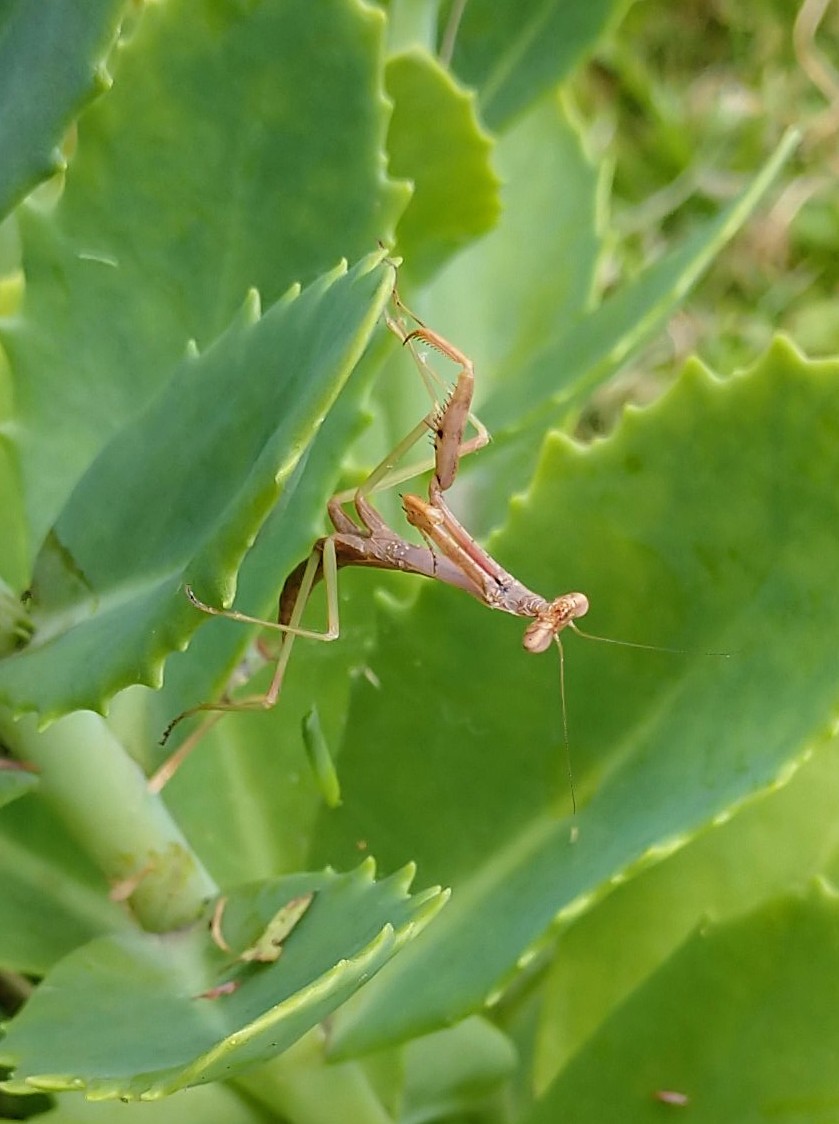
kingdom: Animalia
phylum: Arthropoda
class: Insecta
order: Mantodea
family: Mantidae
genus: Stagmomantis
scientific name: Stagmomantis carolina
